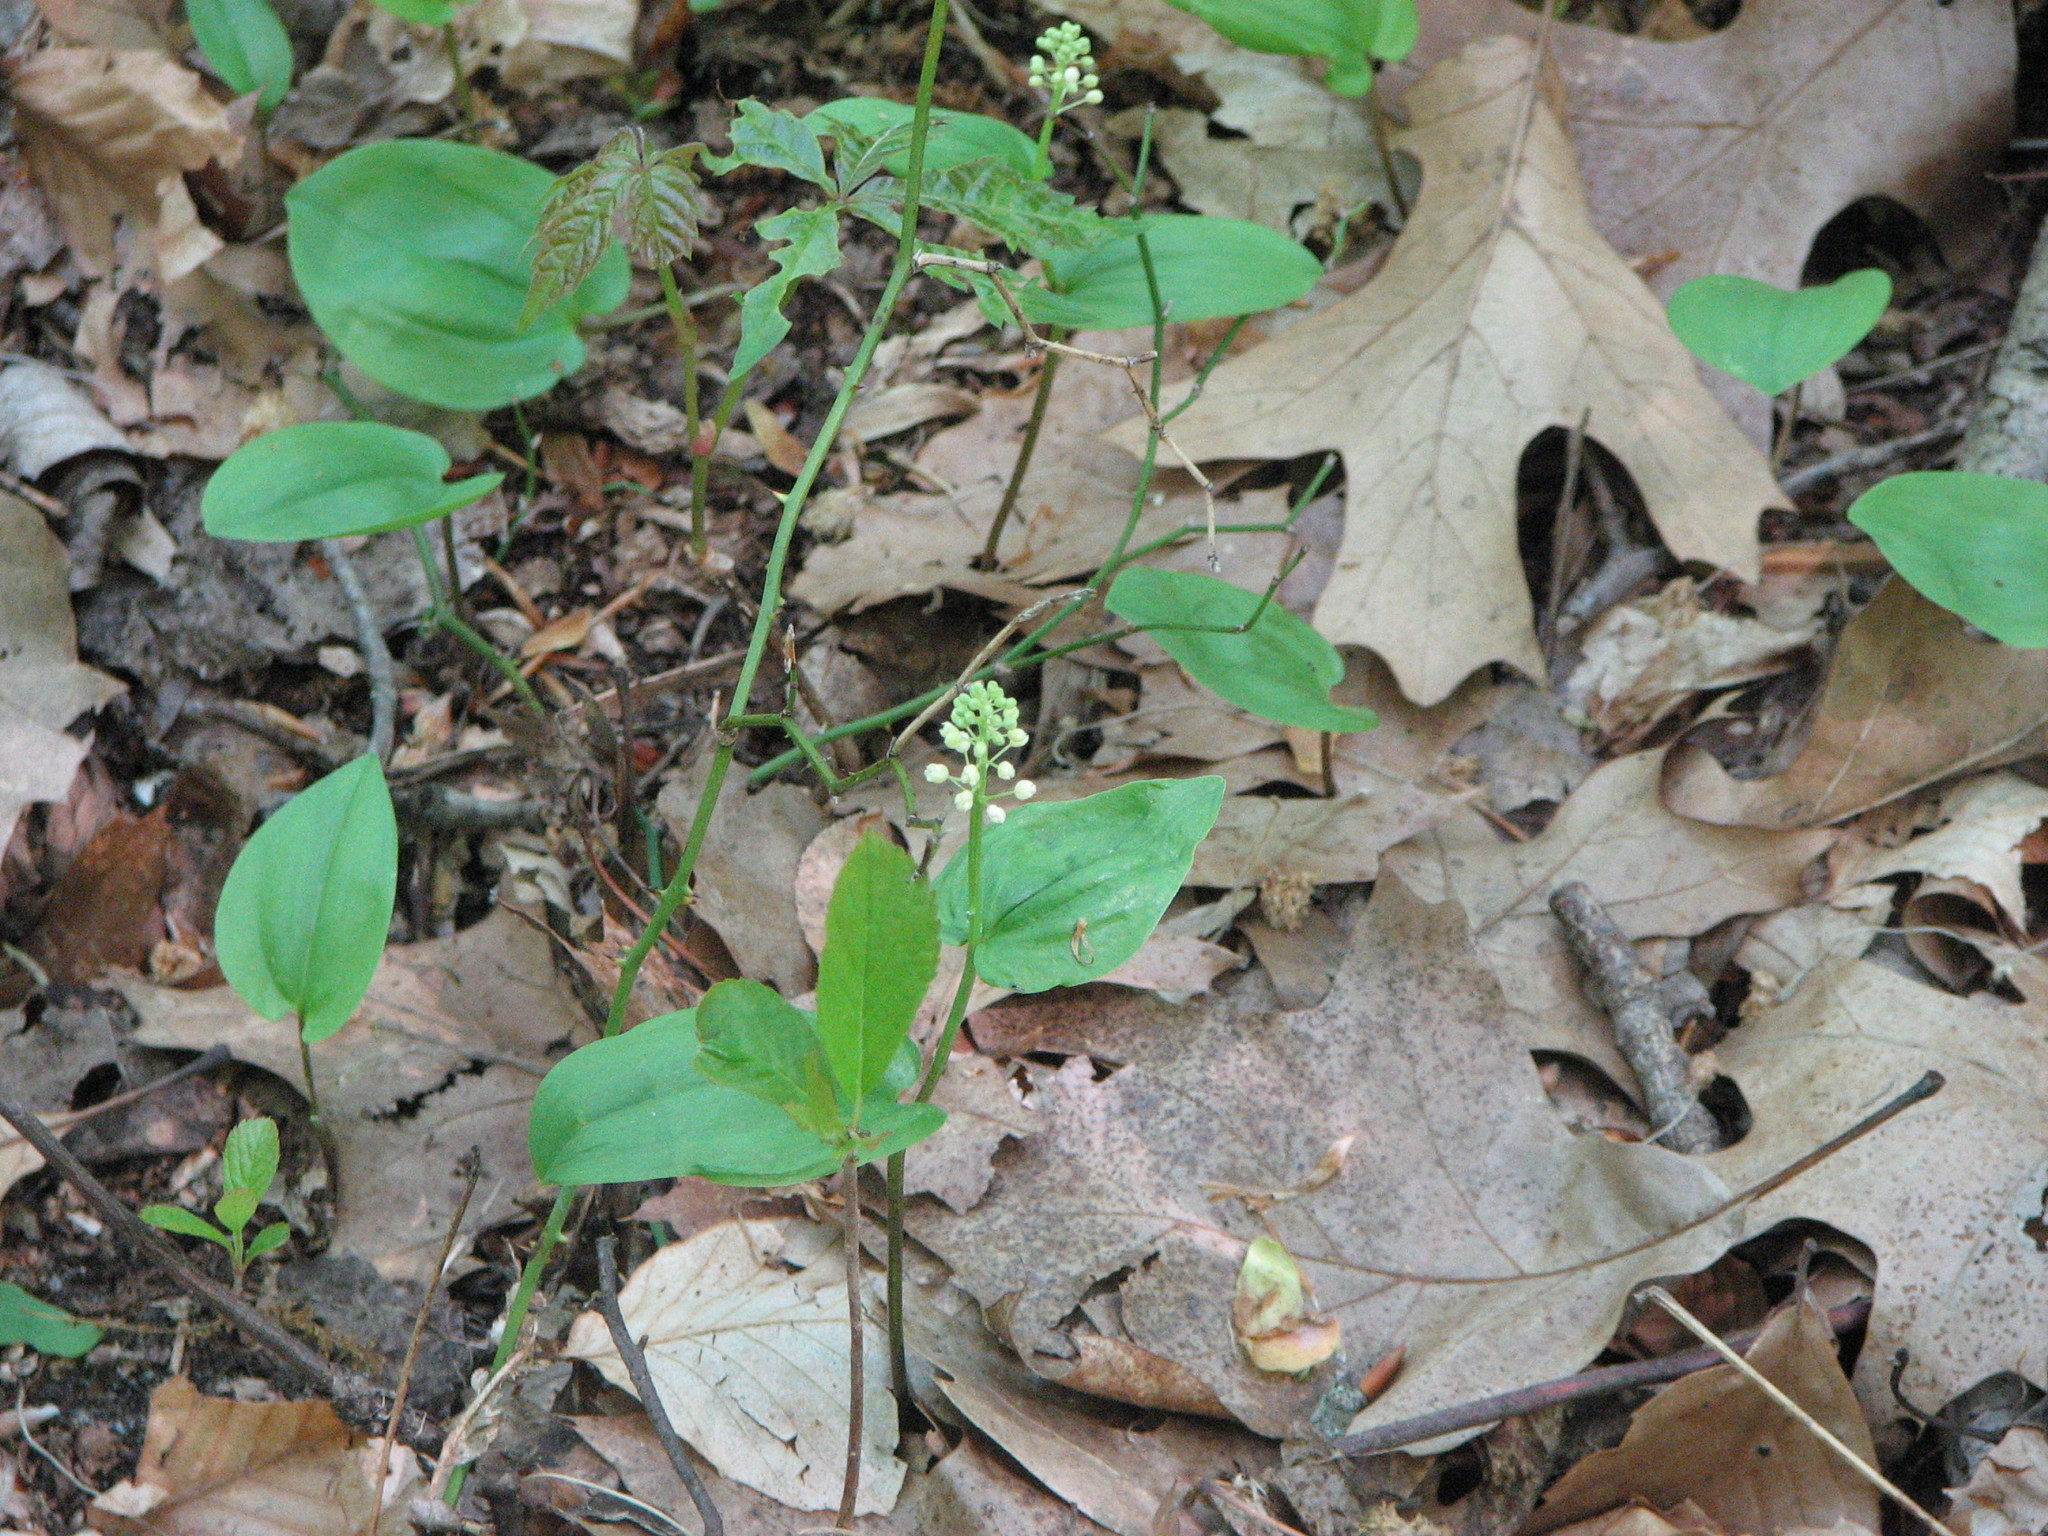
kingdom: Plantae
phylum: Tracheophyta
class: Liliopsida
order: Asparagales
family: Asparagaceae
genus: Maianthemum
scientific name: Maianthemum canadense
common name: False lily-of-the-valley
